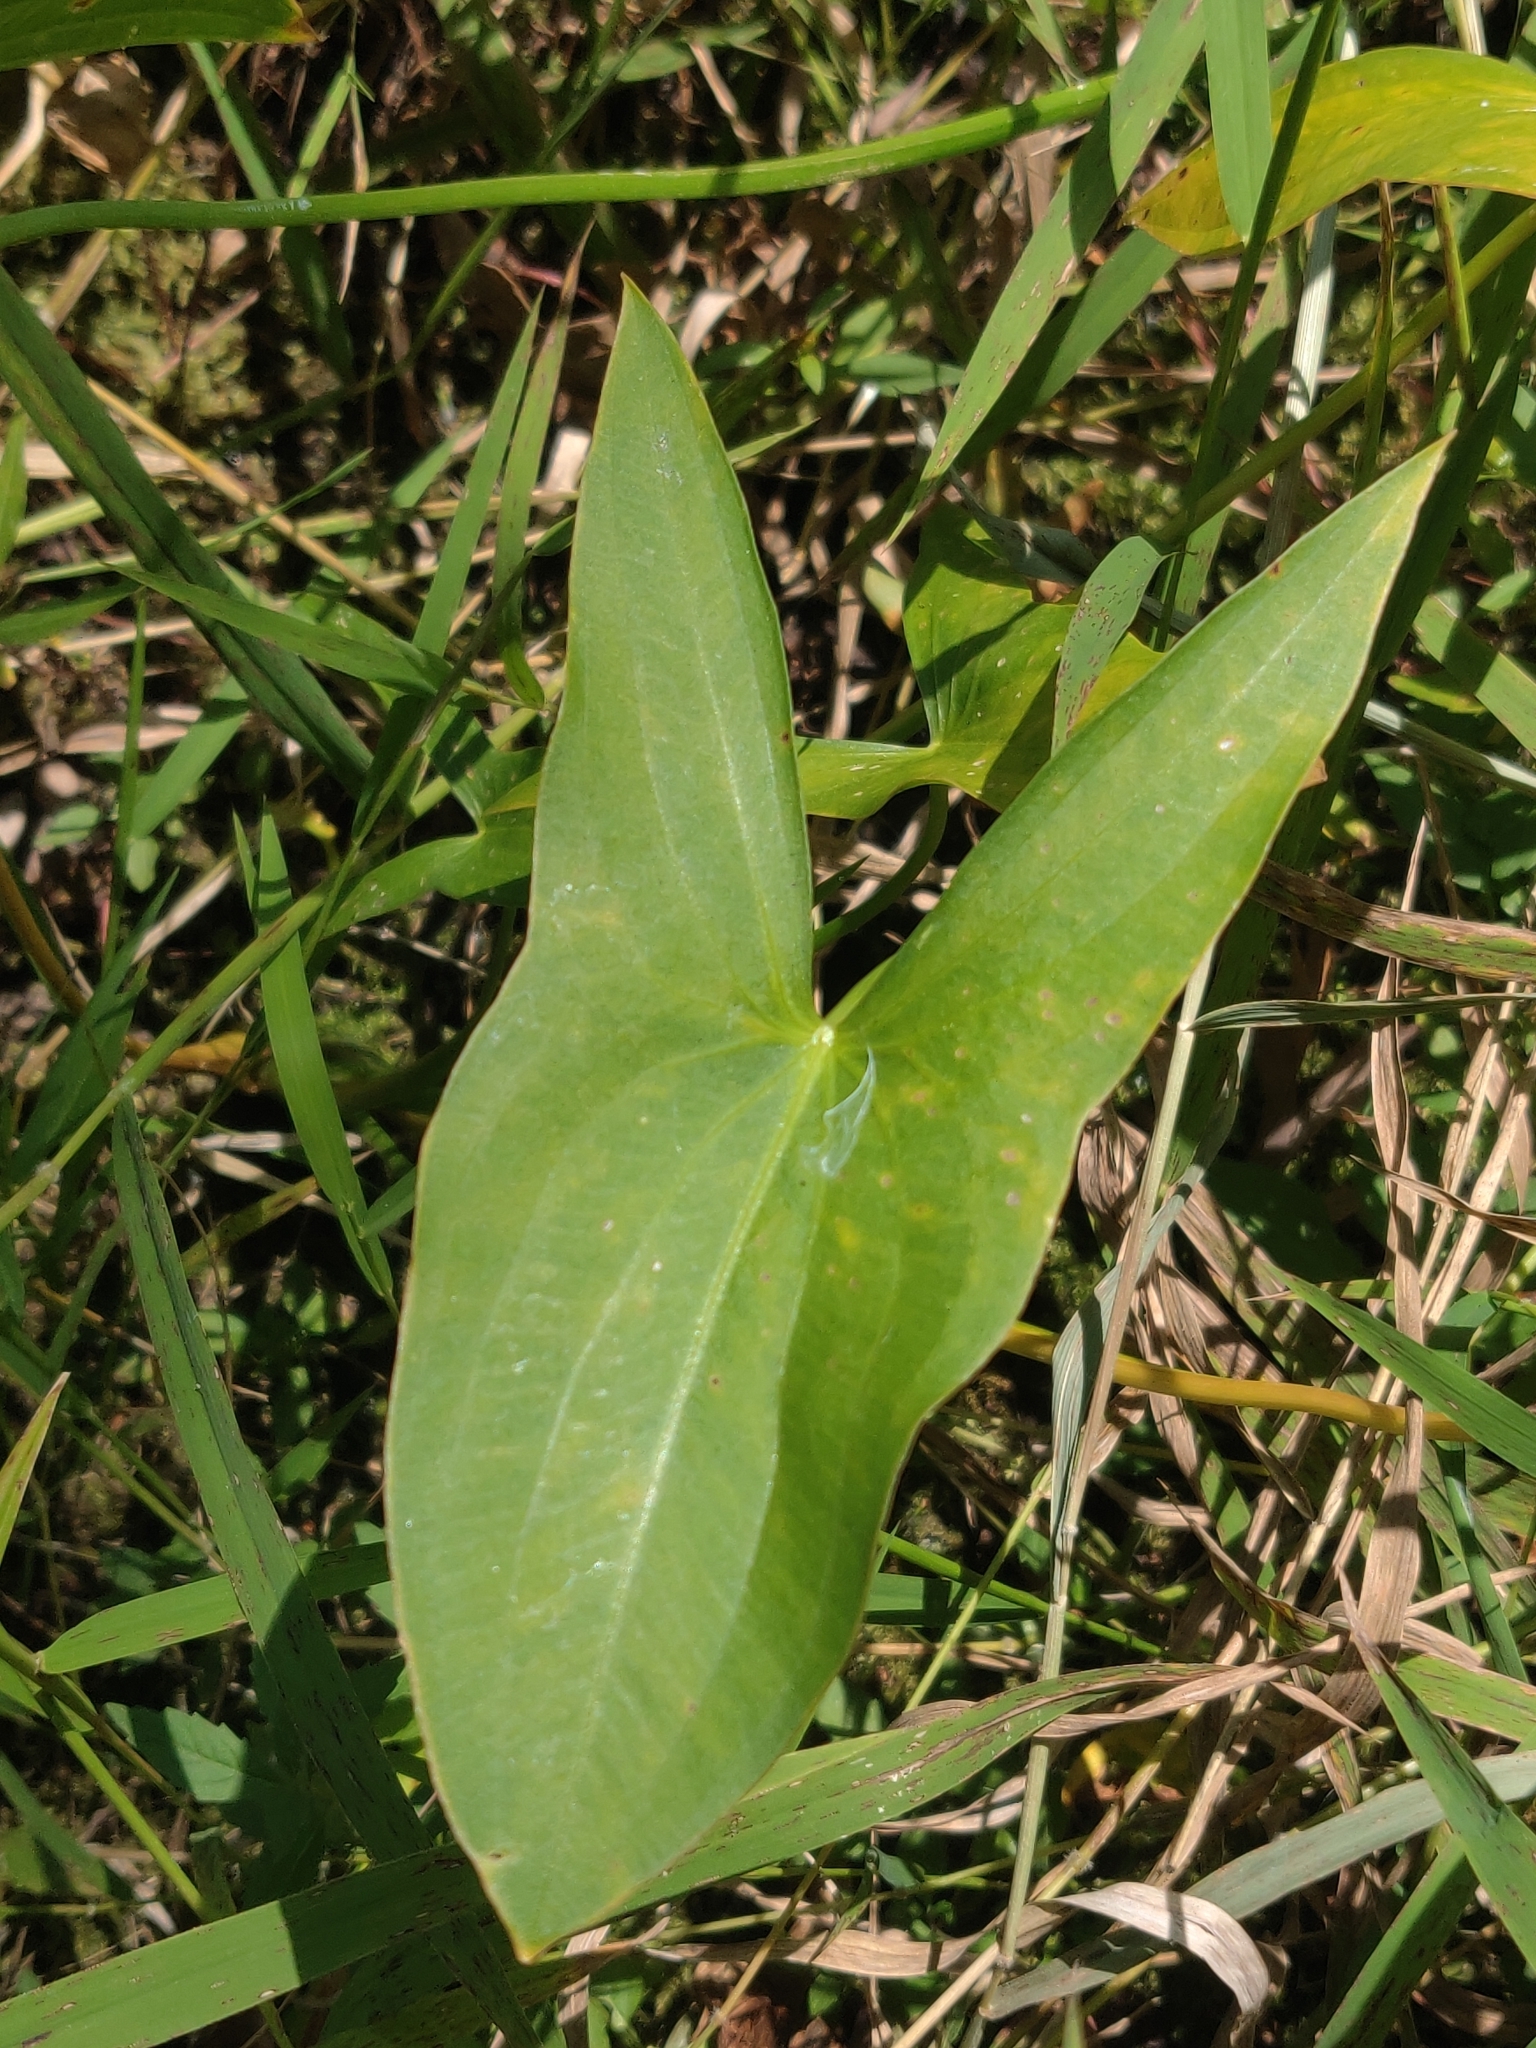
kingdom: Plantae
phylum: Tracheophyta
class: Liliopsida
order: Alismatales
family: Alismataceae
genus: Sagittaria
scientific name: Sagittaria latifolia
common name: Duck-potato
